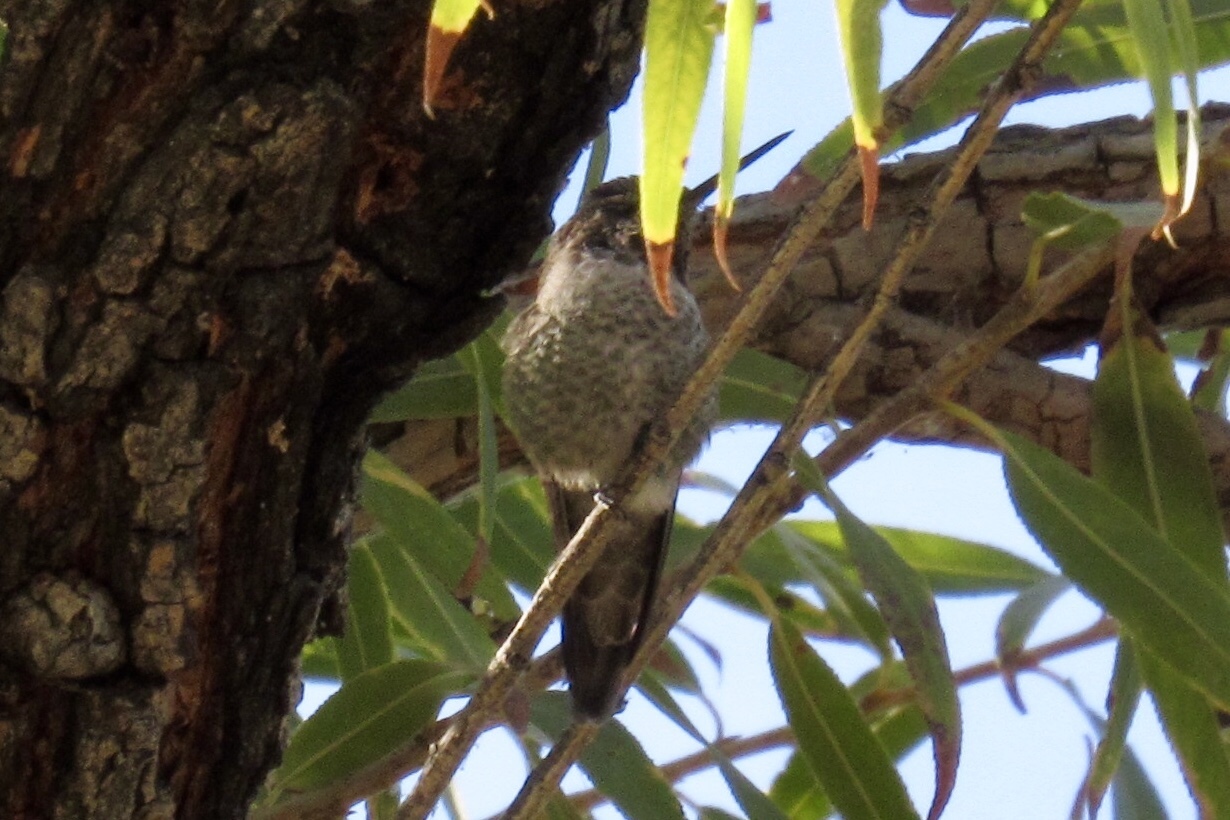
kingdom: Animalia
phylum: Chordata
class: Aves
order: Apodiformes
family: Trochilidae
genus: Calypte
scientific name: Calypte anna
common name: Anna's hummingbird
